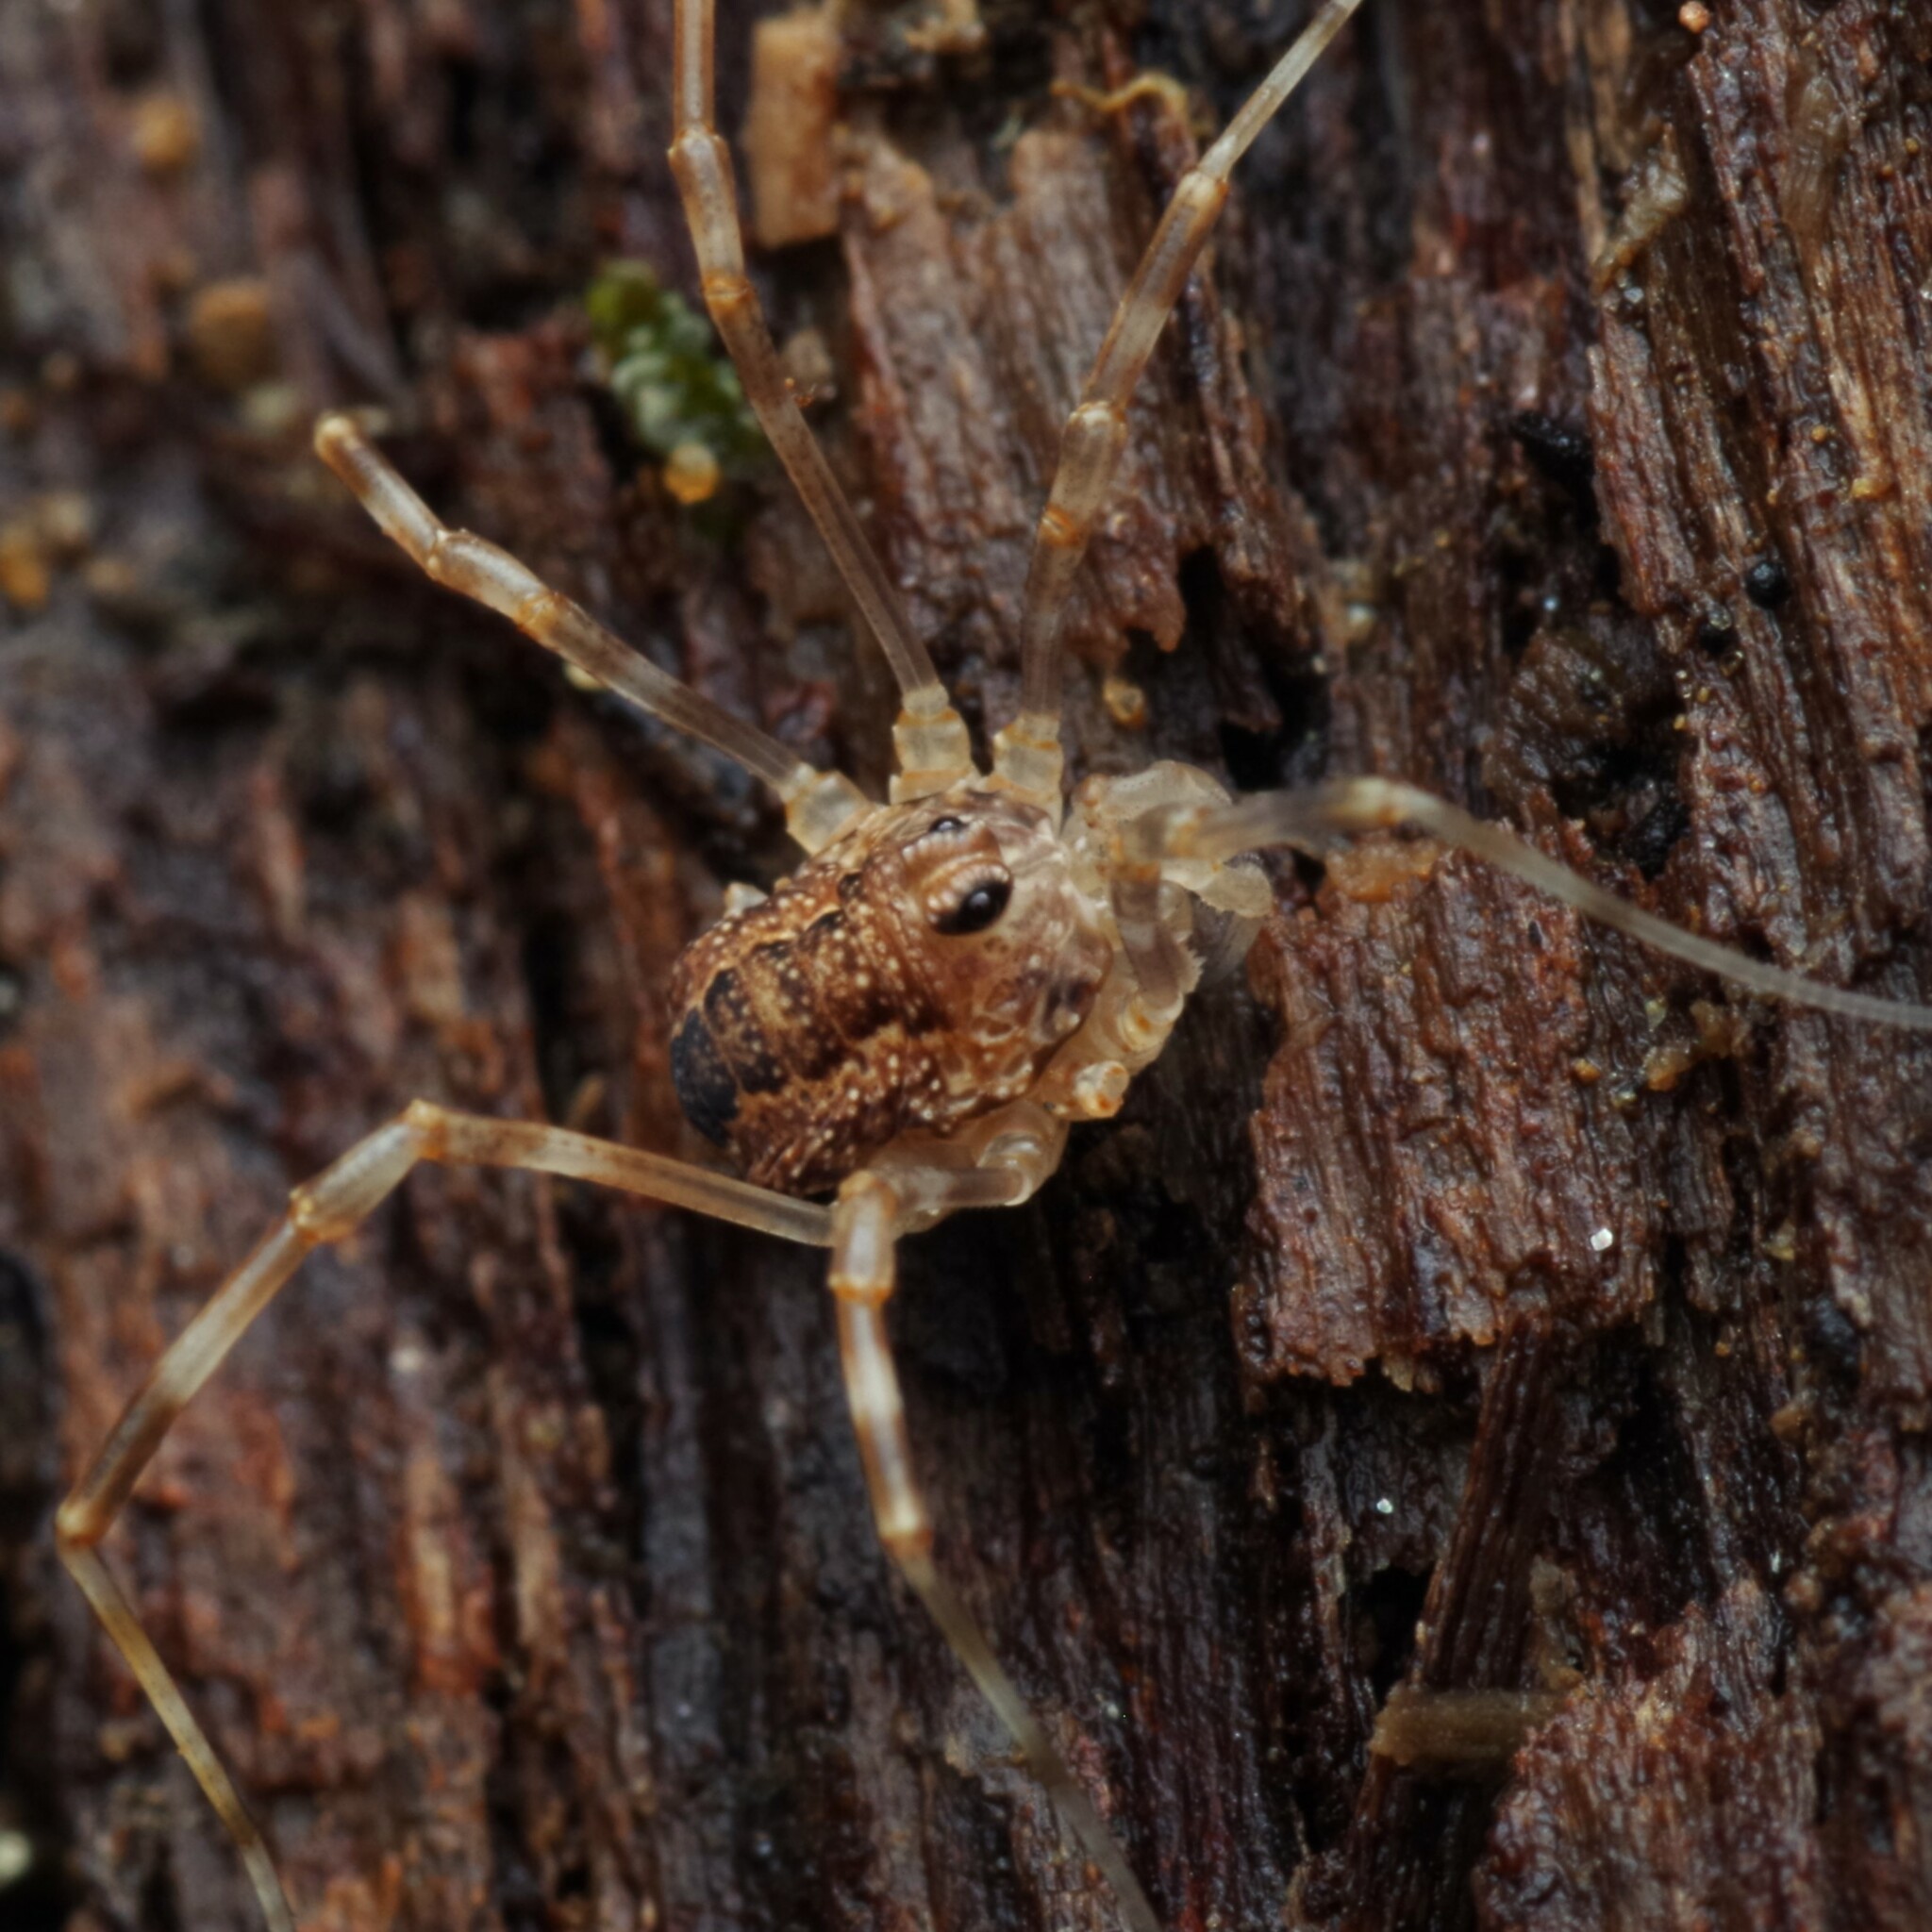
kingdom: Animalia
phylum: Arthropoda
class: Arachnida
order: Opiliones
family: Phalangiidae
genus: Rilaena
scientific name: Rilaena triangularis
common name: Spring harvestman
